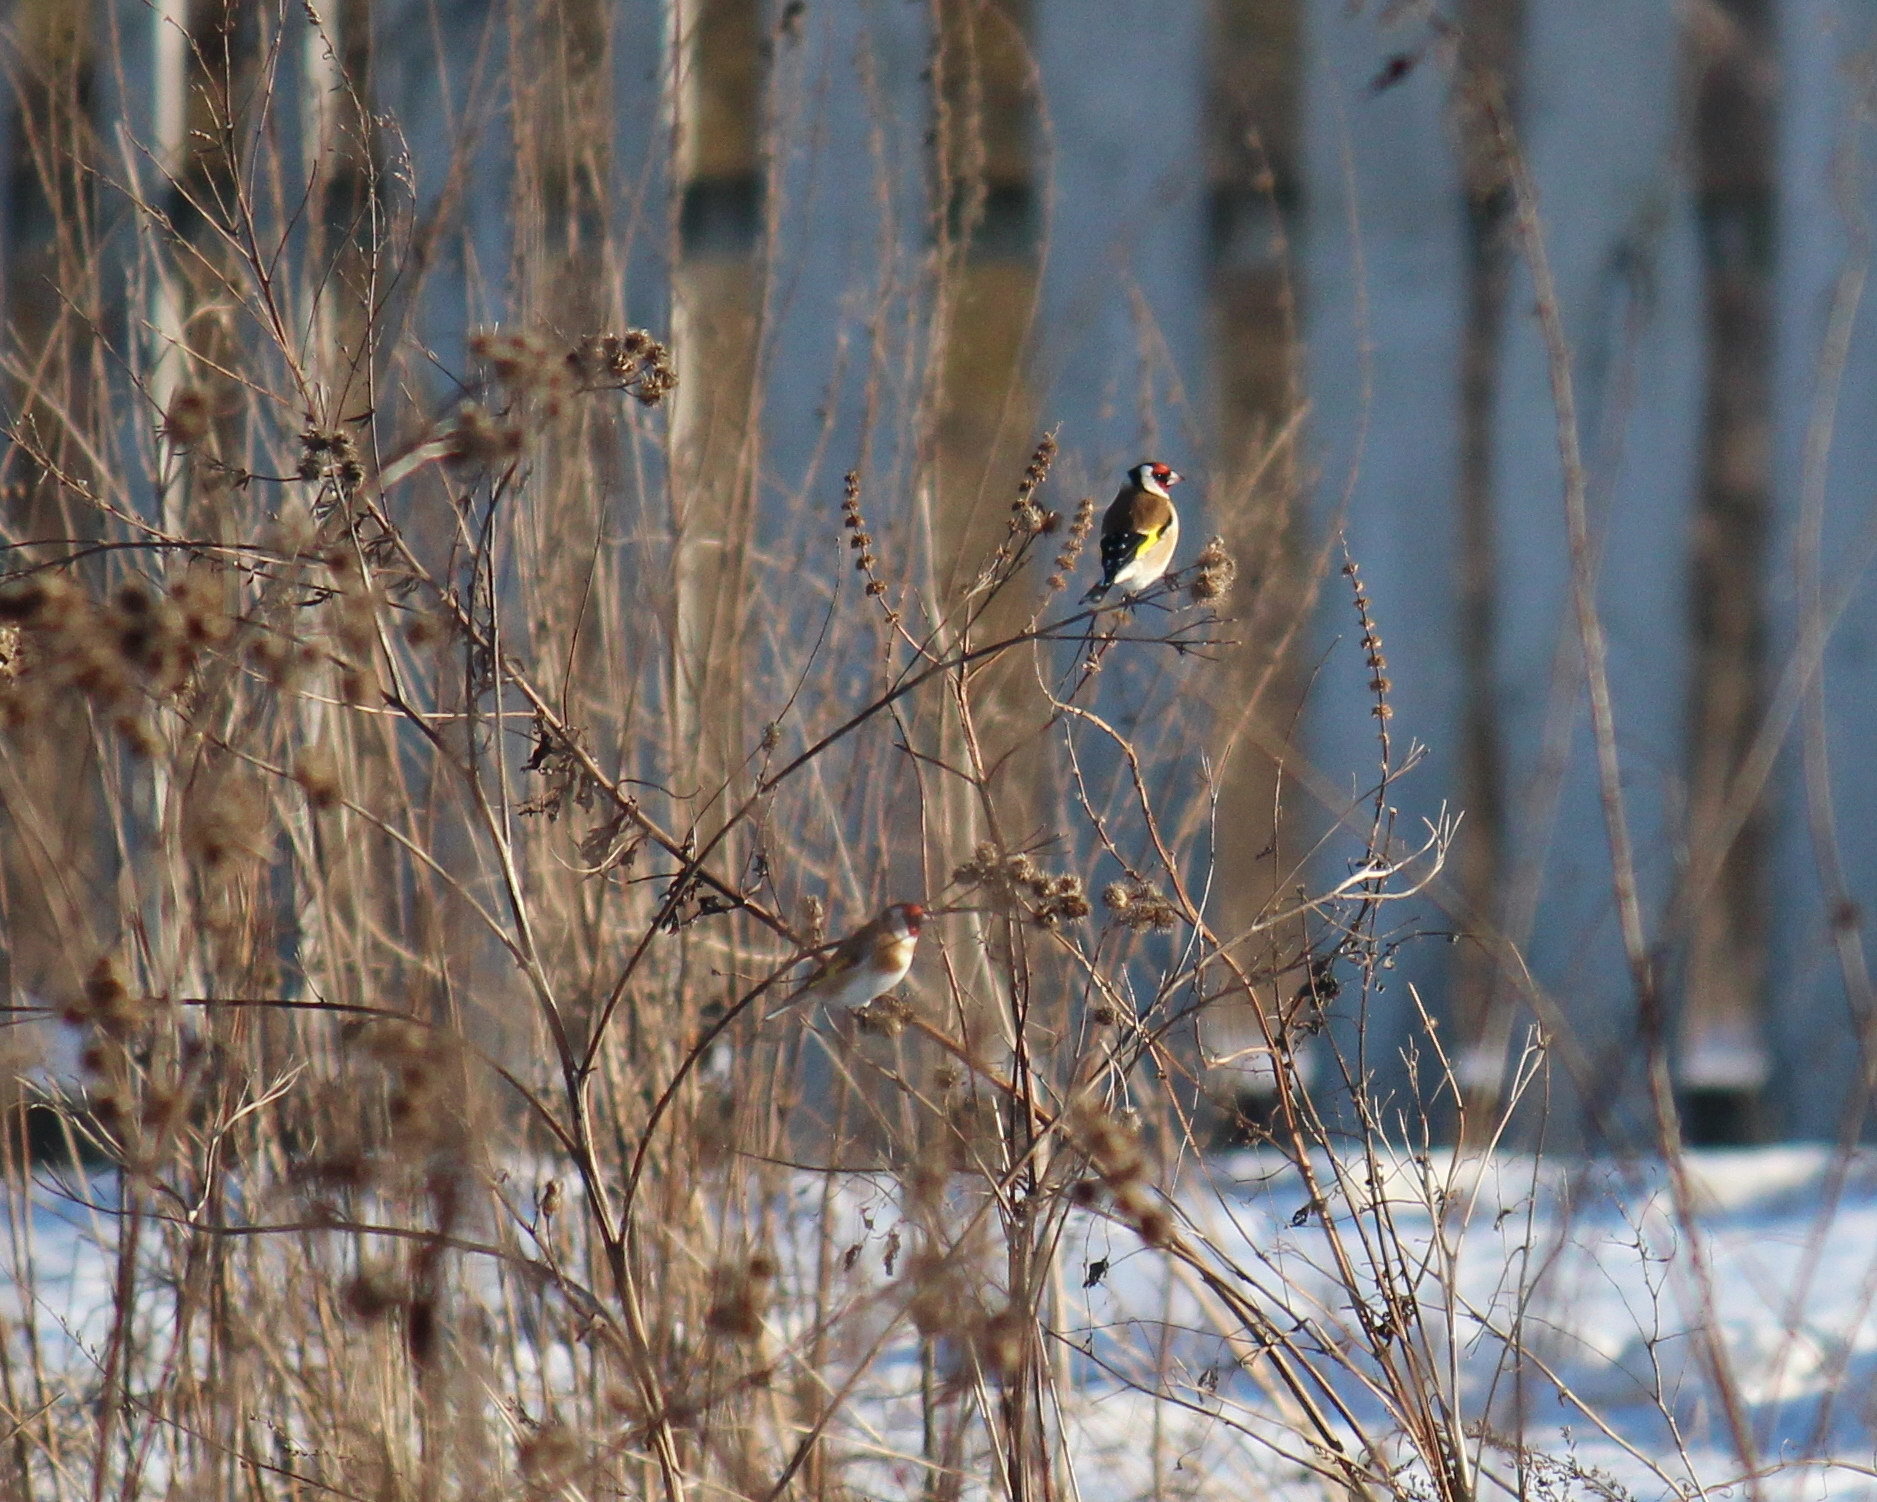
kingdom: Animalia
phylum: Chordata
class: Aves
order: Passeriformes
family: Fringillidae
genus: Carduelis
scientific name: Carduelis carduelis
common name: European goldfinch
